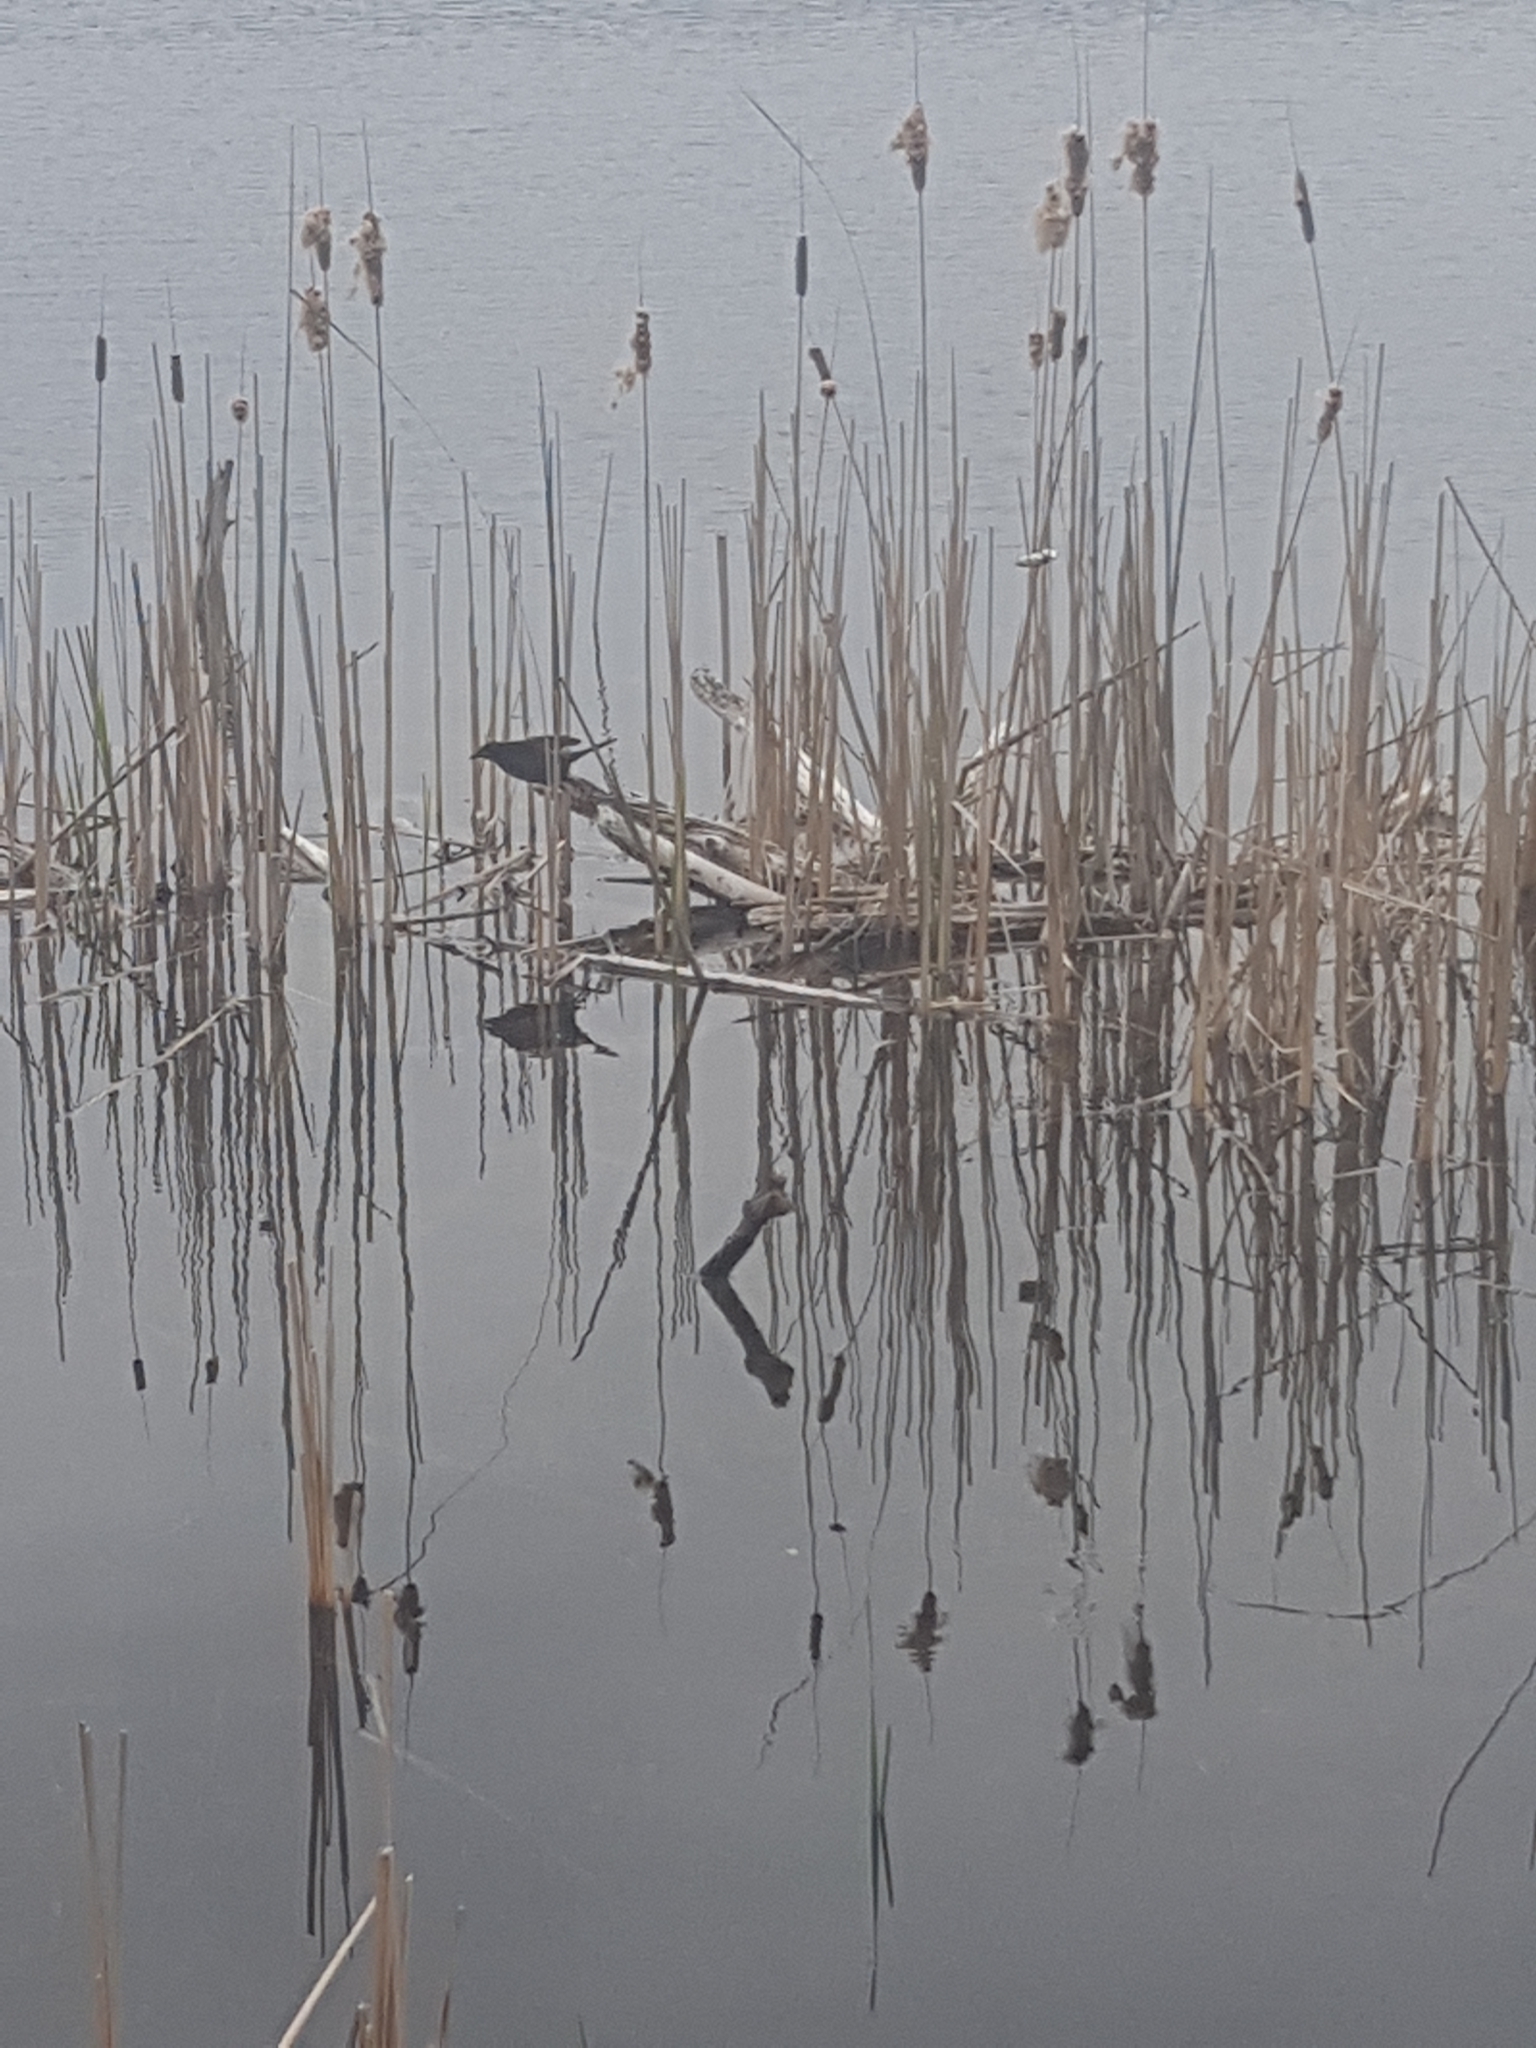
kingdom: Animalia
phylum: Chordata
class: Aves
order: Passeriformes
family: Icteridae
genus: Quiscalus
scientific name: Quiscalus quiscula
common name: Common grackle
